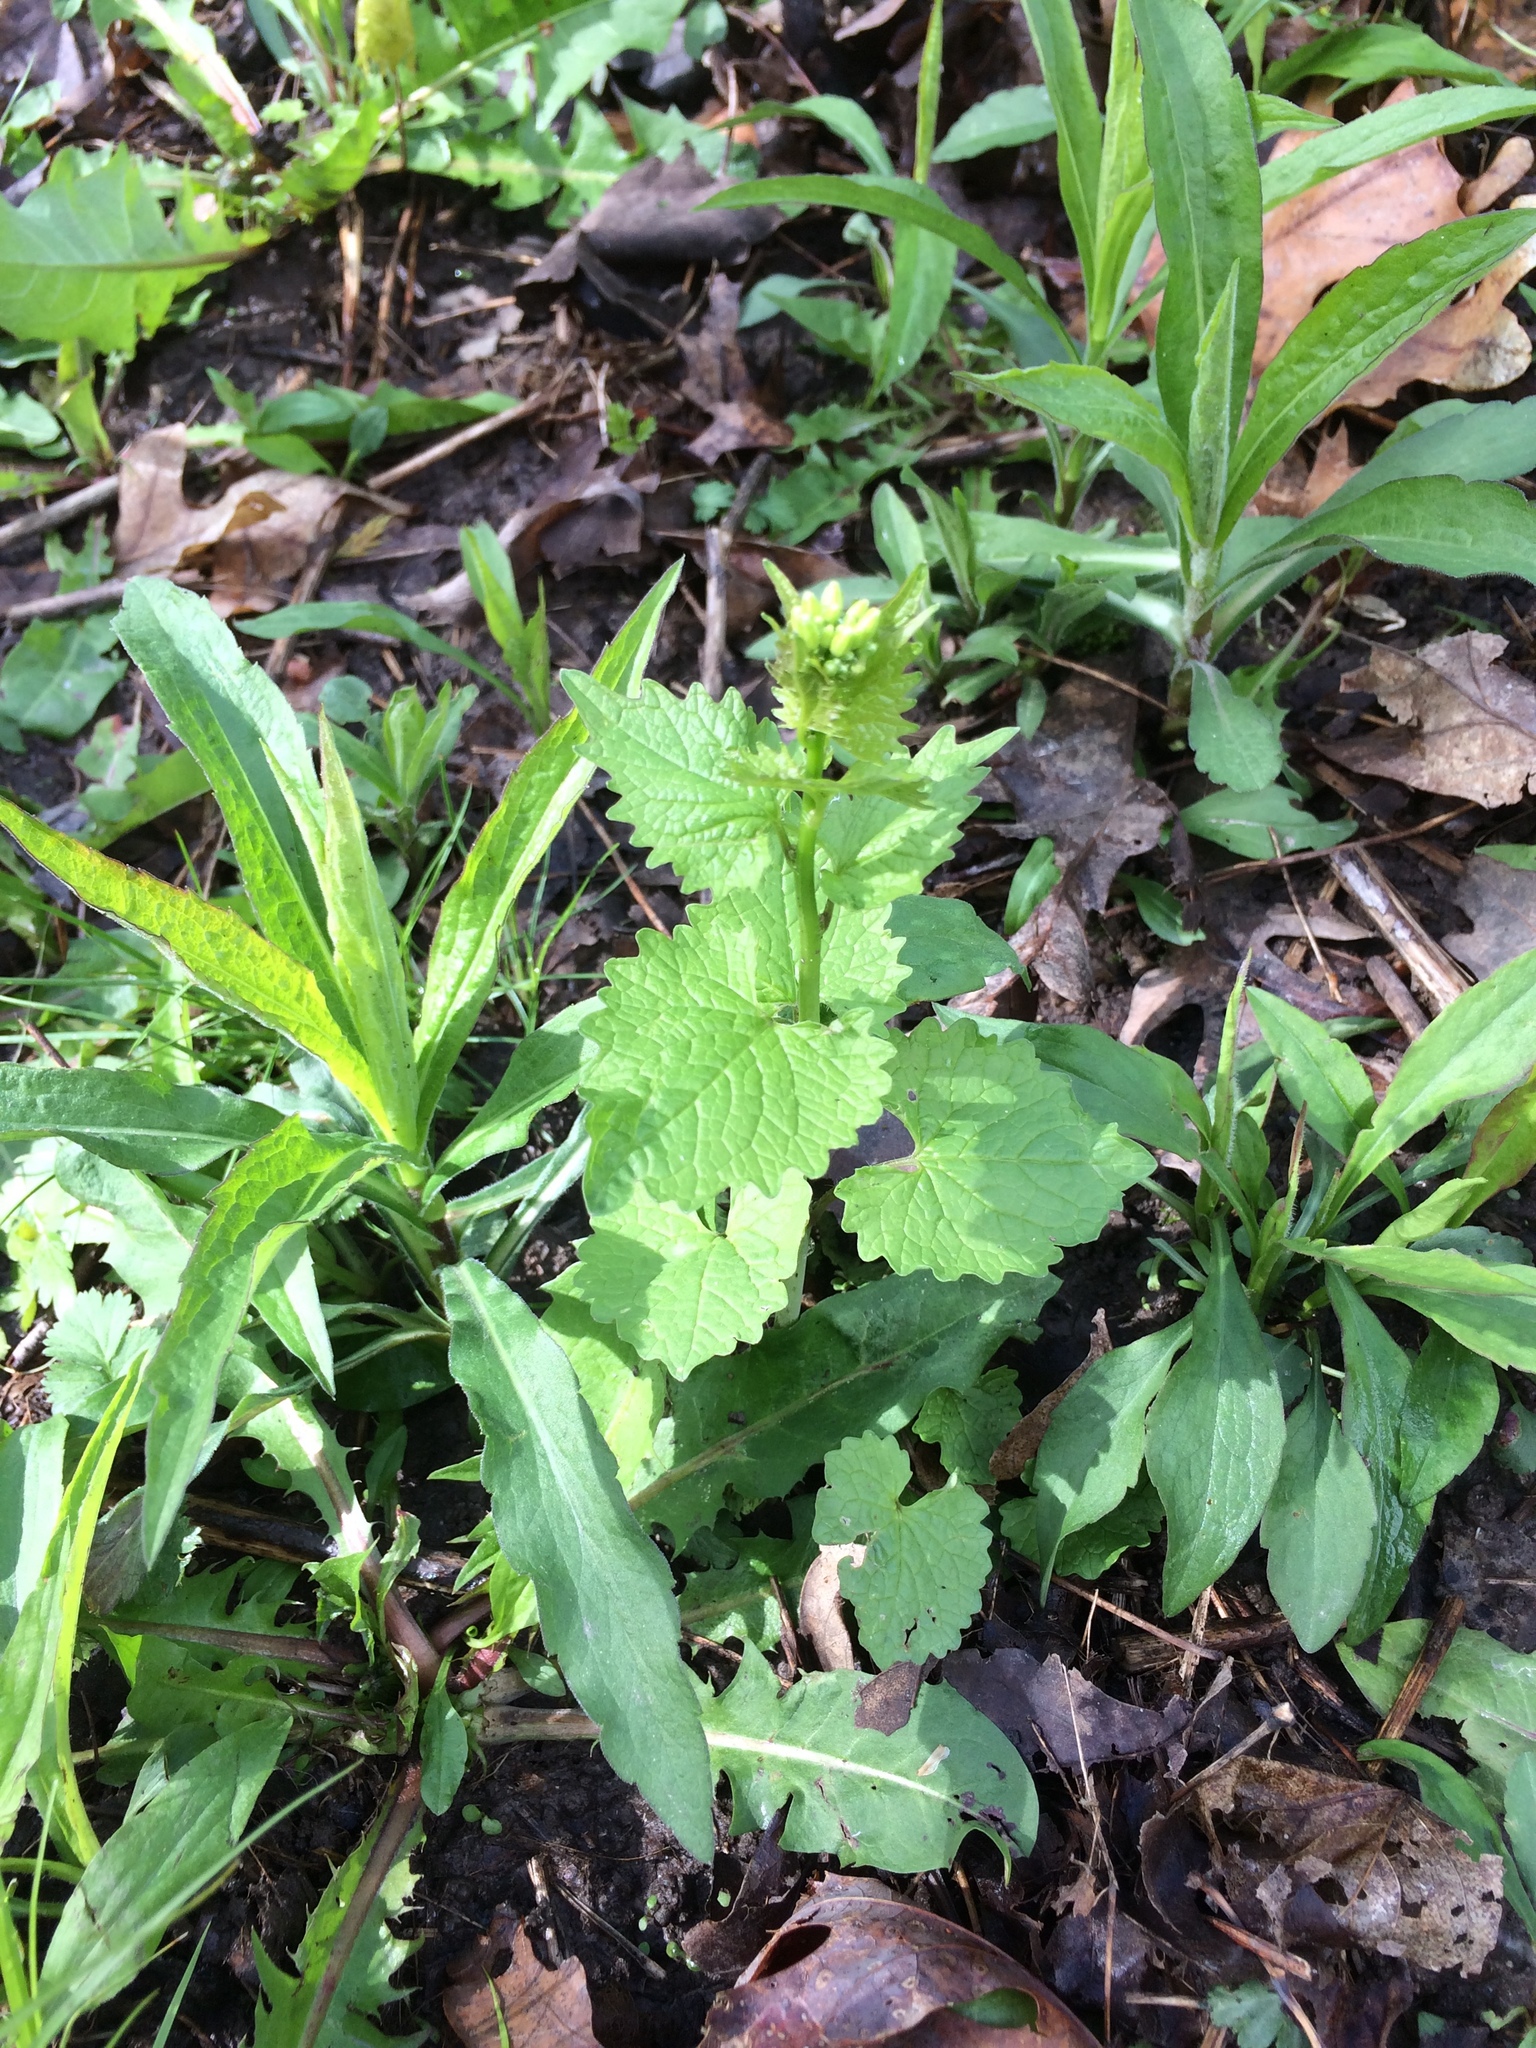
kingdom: Plantae
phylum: Tracheophyta
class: Magnoliopsida
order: Brassicales
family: Brassicaceae
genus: Alliaria
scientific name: Alliaria petiolata
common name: Garlic mustard
